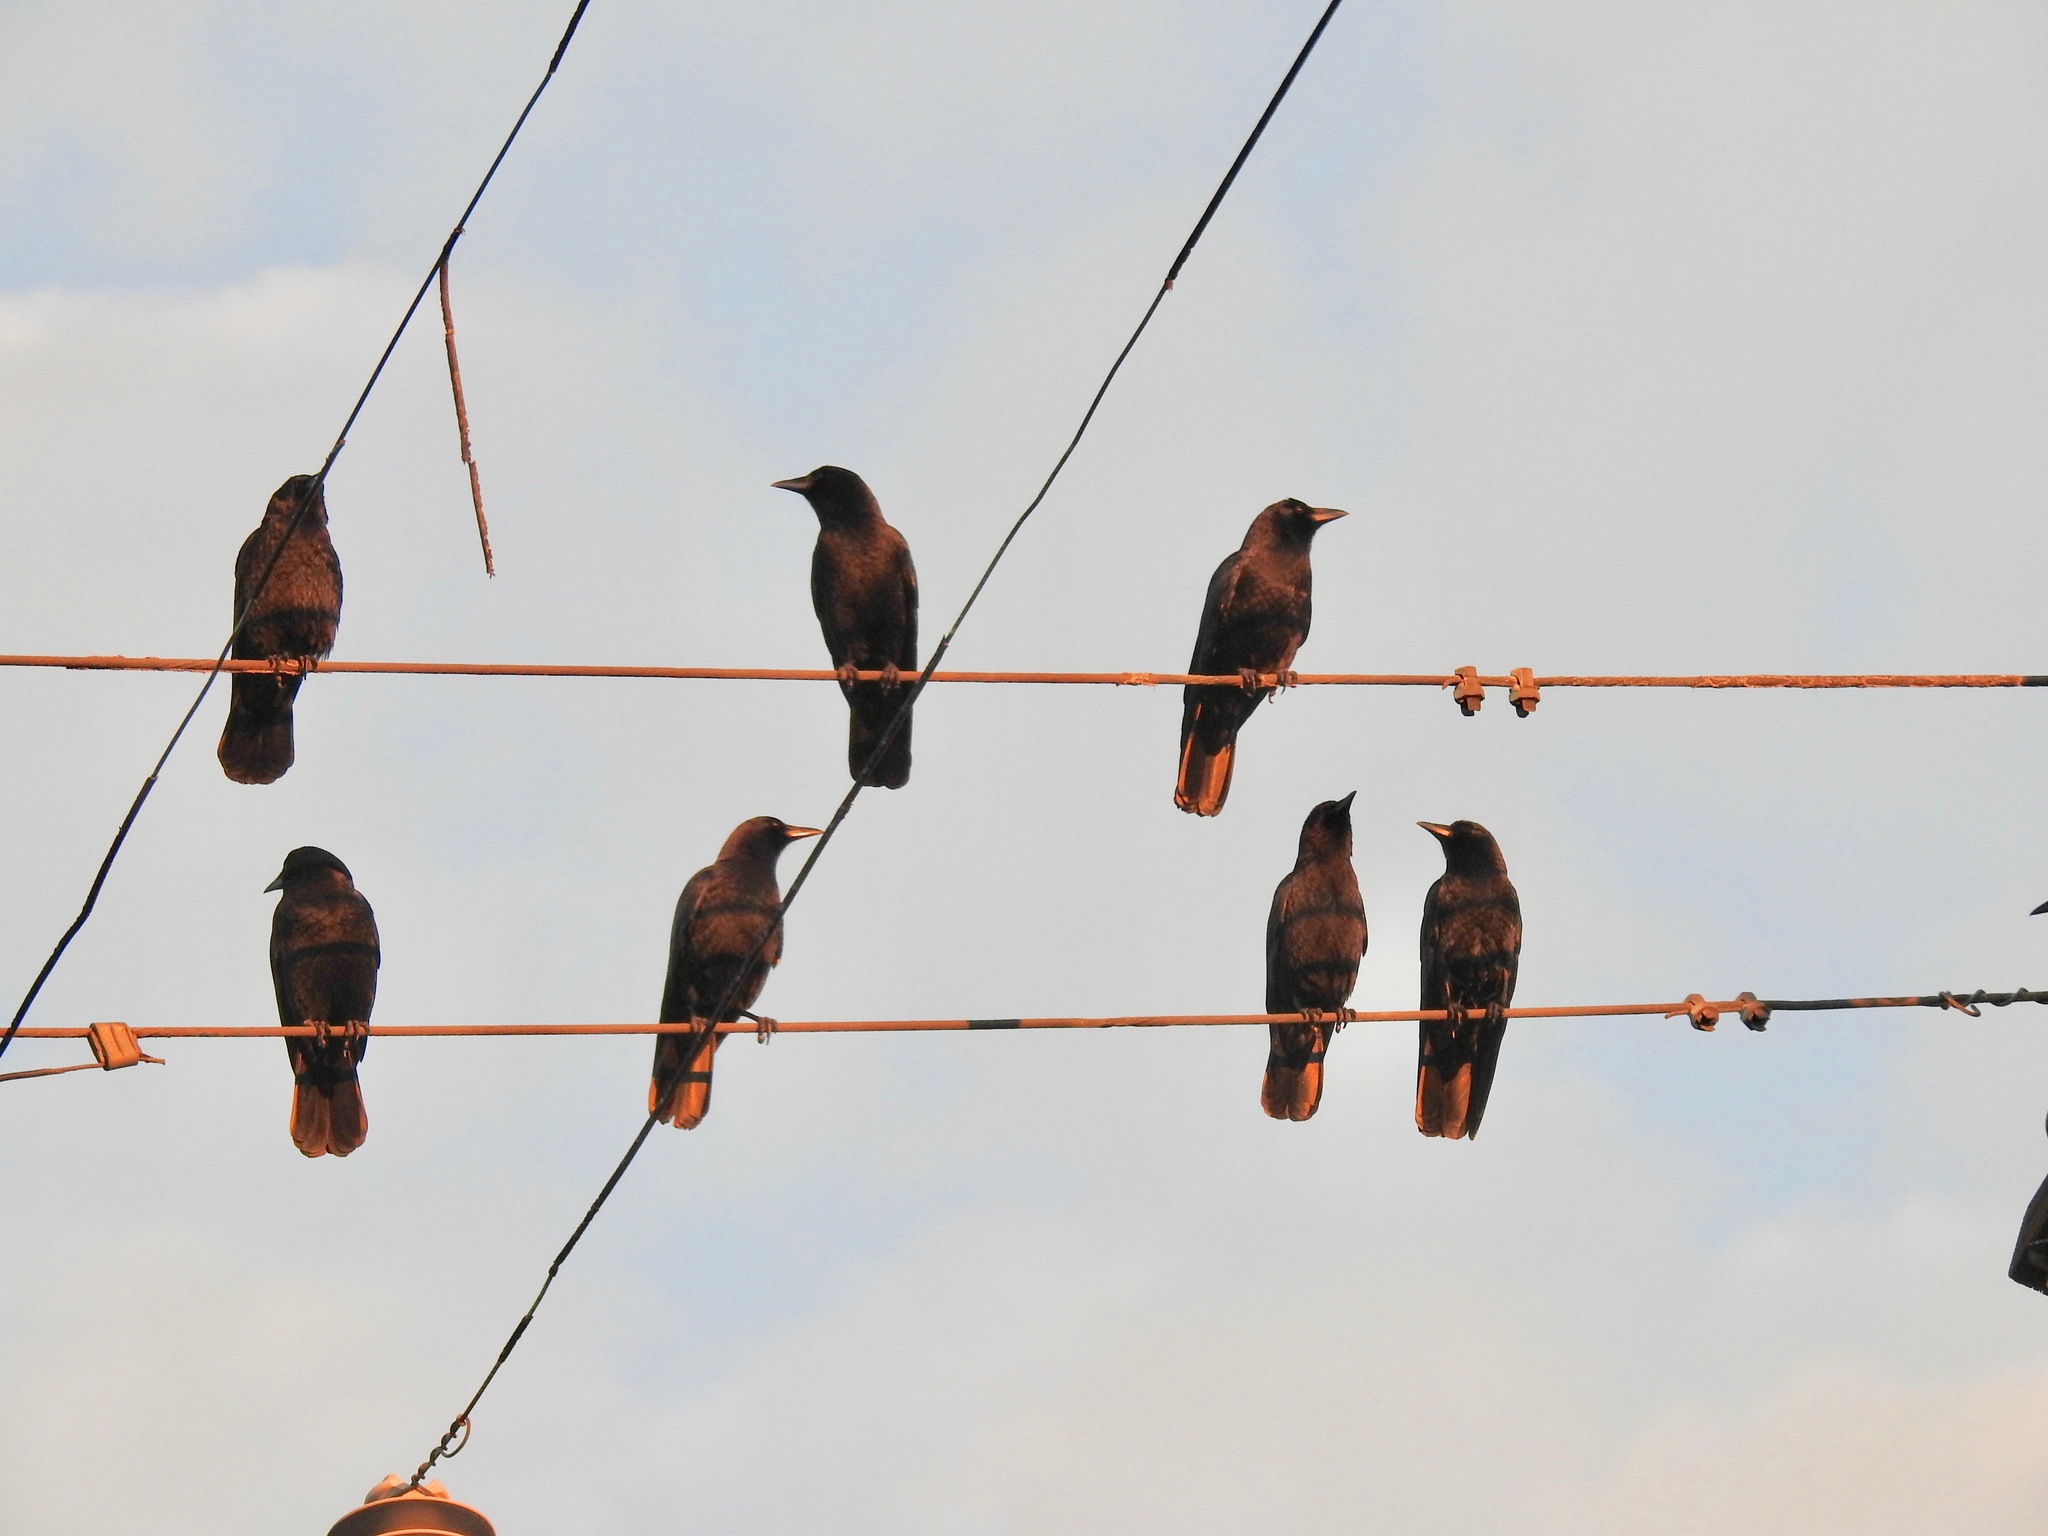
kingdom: Animalia
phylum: Chordata
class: Aves
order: Passeriformes
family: Corvidae
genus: Corvus
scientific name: Corvus brachyrhynchos
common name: American crow
